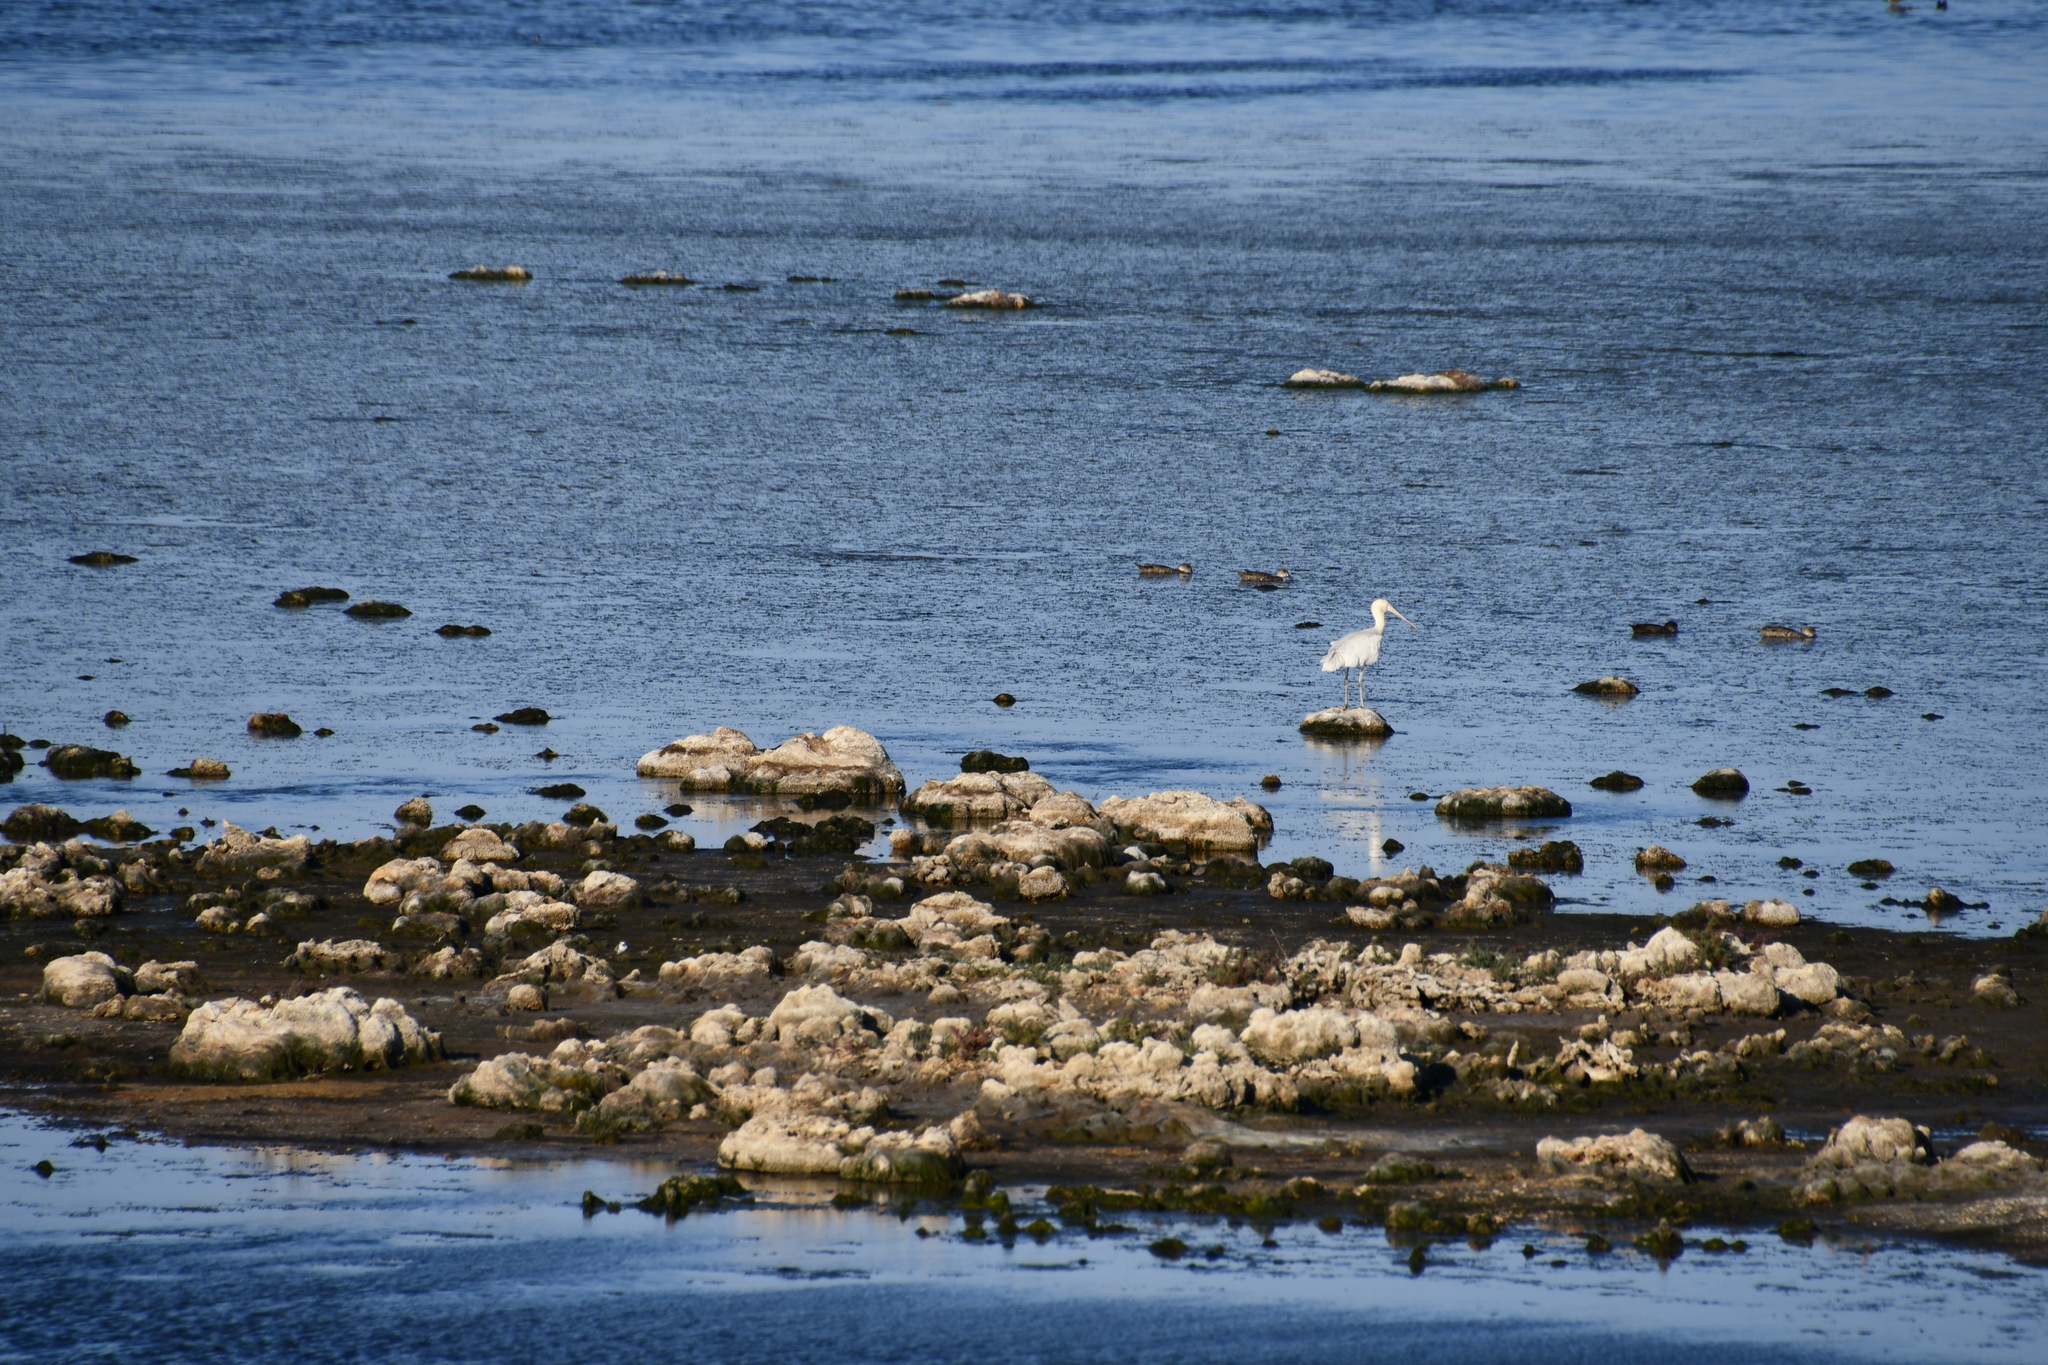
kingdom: Animalia
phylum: Chordata
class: Aves
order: Pelecaniformes
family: Threskiornithidae
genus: Platalea
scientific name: Platalea flavipes
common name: Yellow-billed spoonbill
